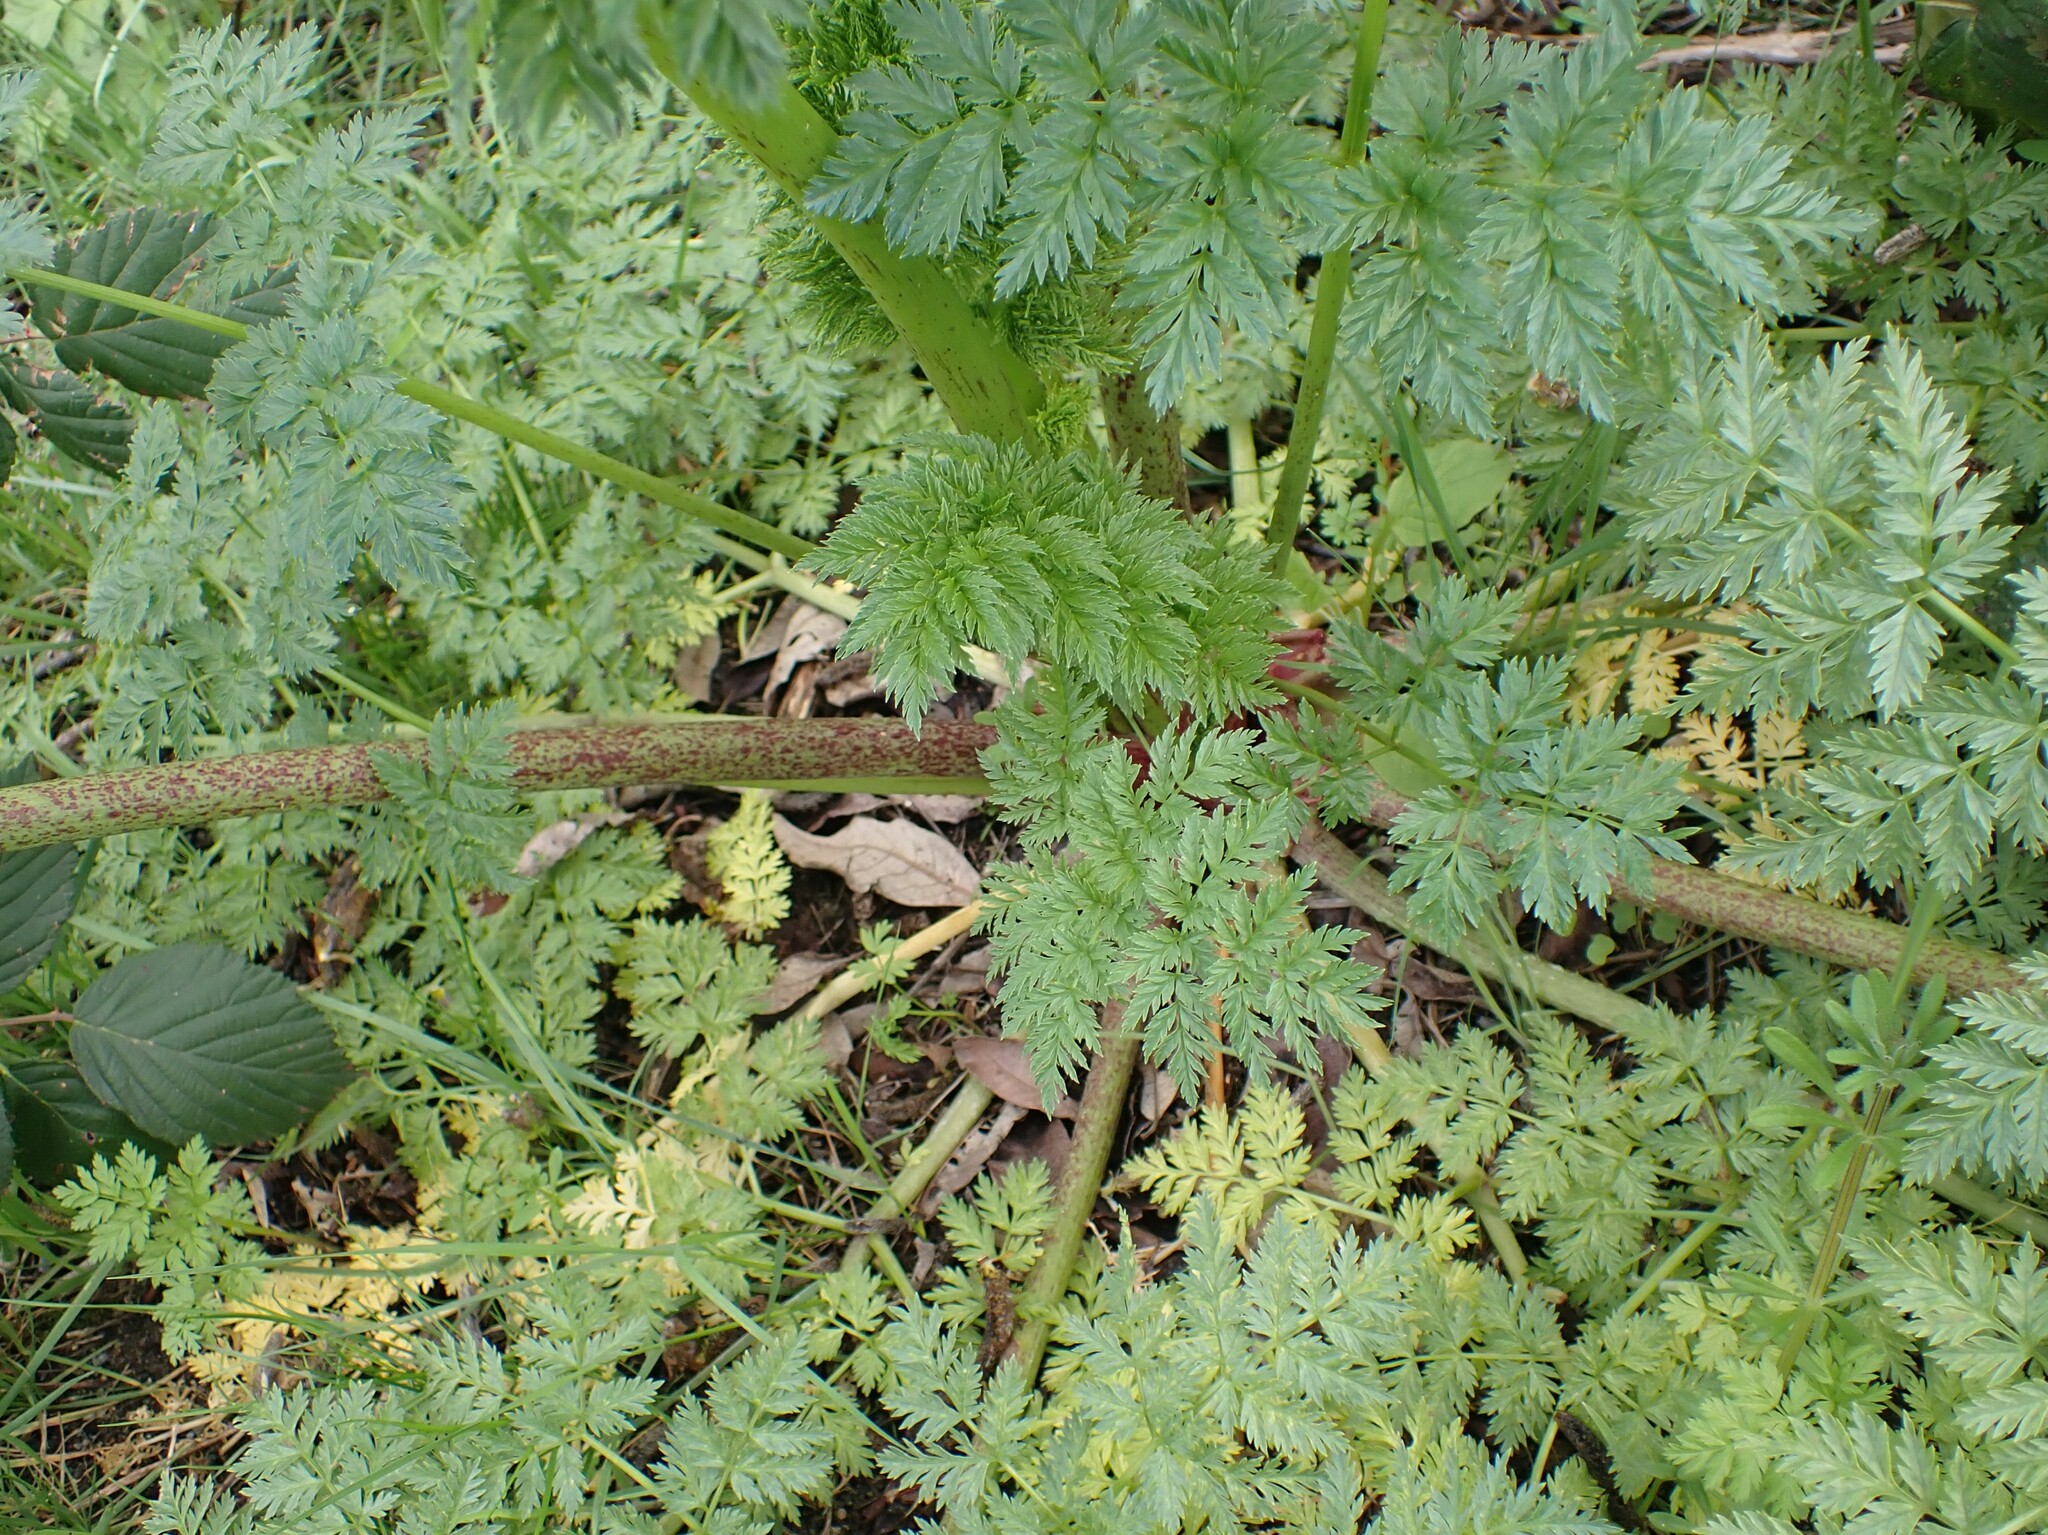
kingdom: Plantae
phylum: Tracheophyta
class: Magnoliopsida
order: Apiales
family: Apiaceae
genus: Conium
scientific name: Conium maculatum
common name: Hemlock
